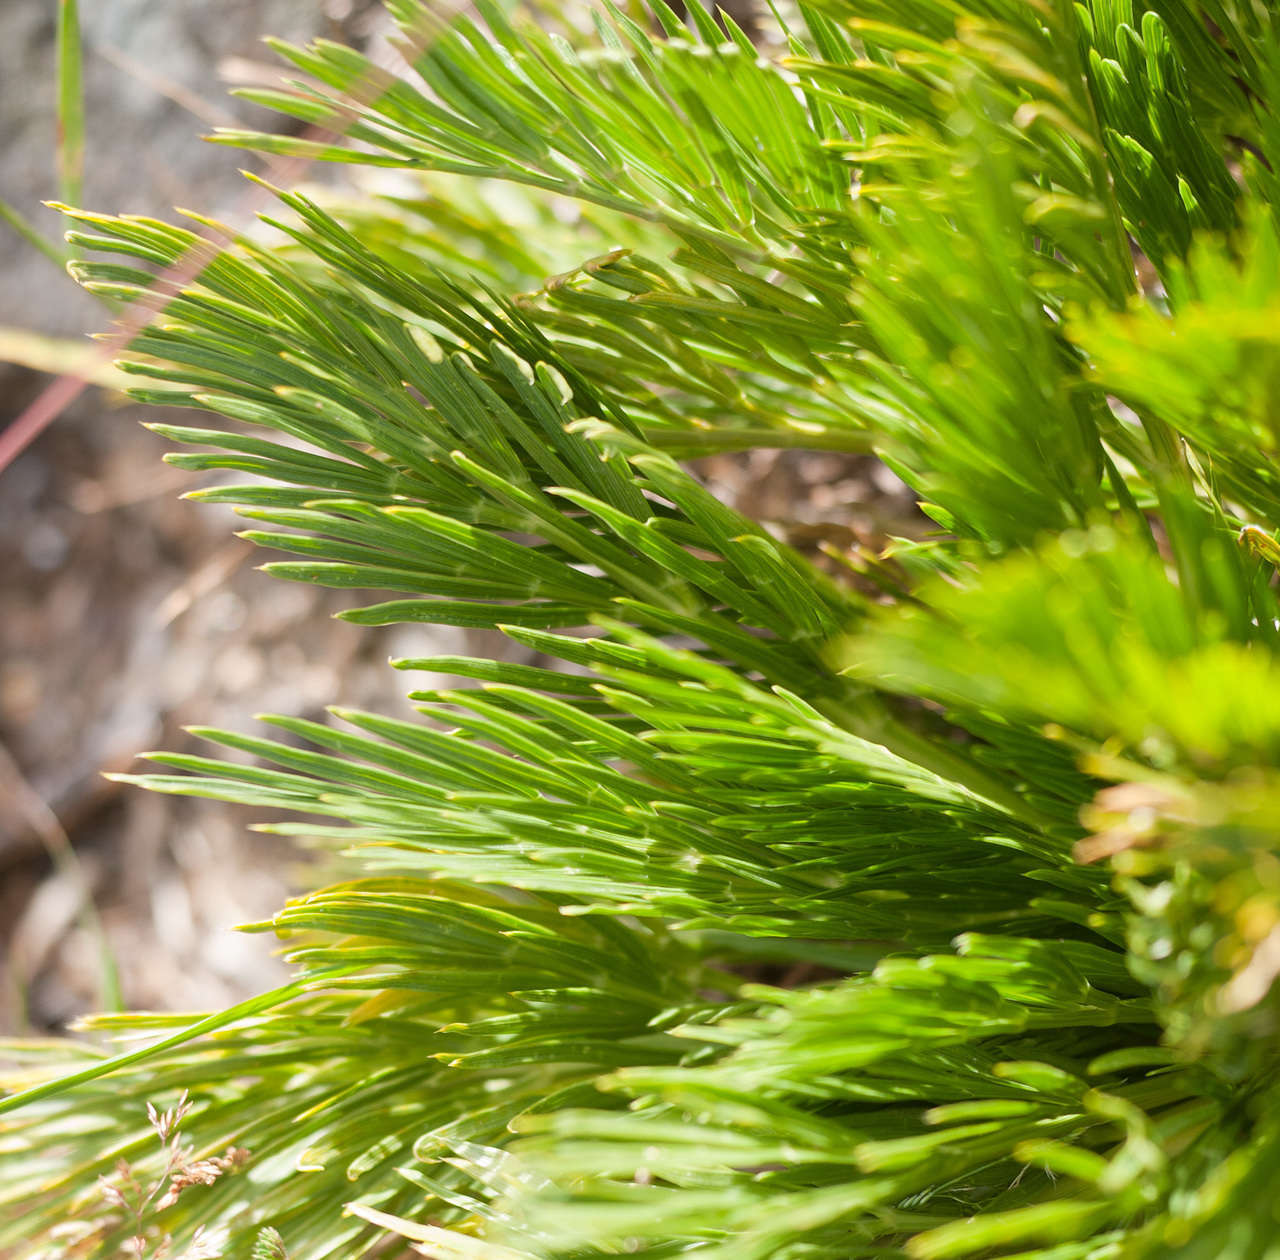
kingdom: Plantae
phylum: Tracheophyta
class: Magnoliopsida
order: Apiales
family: Apiaceae
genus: Aciphylla
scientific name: Aciphylla glacialis
